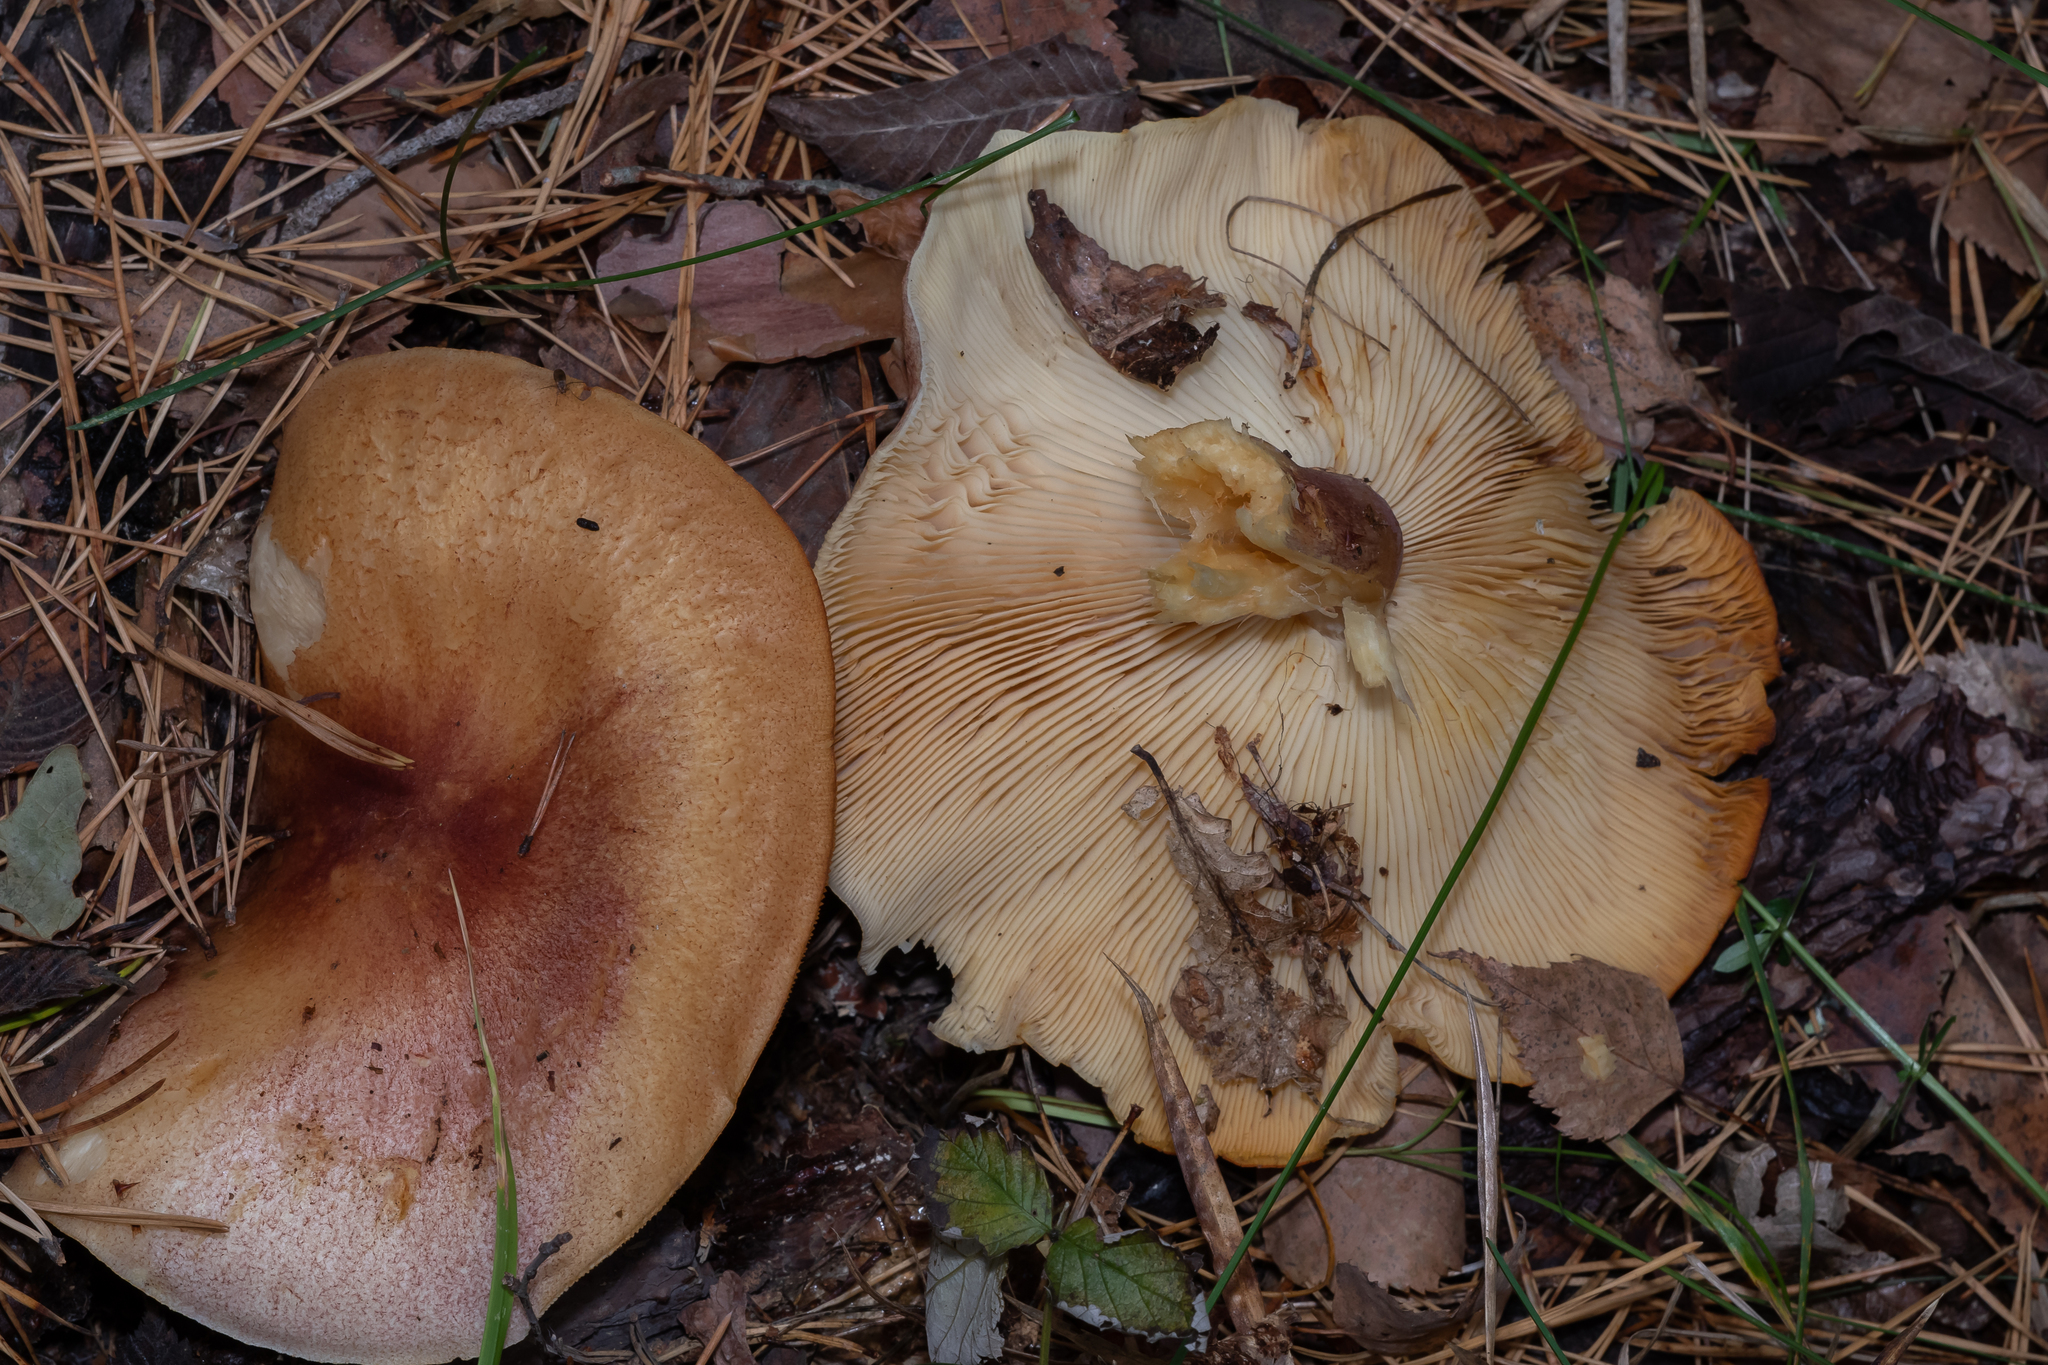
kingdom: Fungi
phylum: Basidiomycota
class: Agaricomycetes
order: Agaricales
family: Tricholomataceae
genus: Tricholomopsis
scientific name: Tricholomopsis rutilans
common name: Plums and custard
